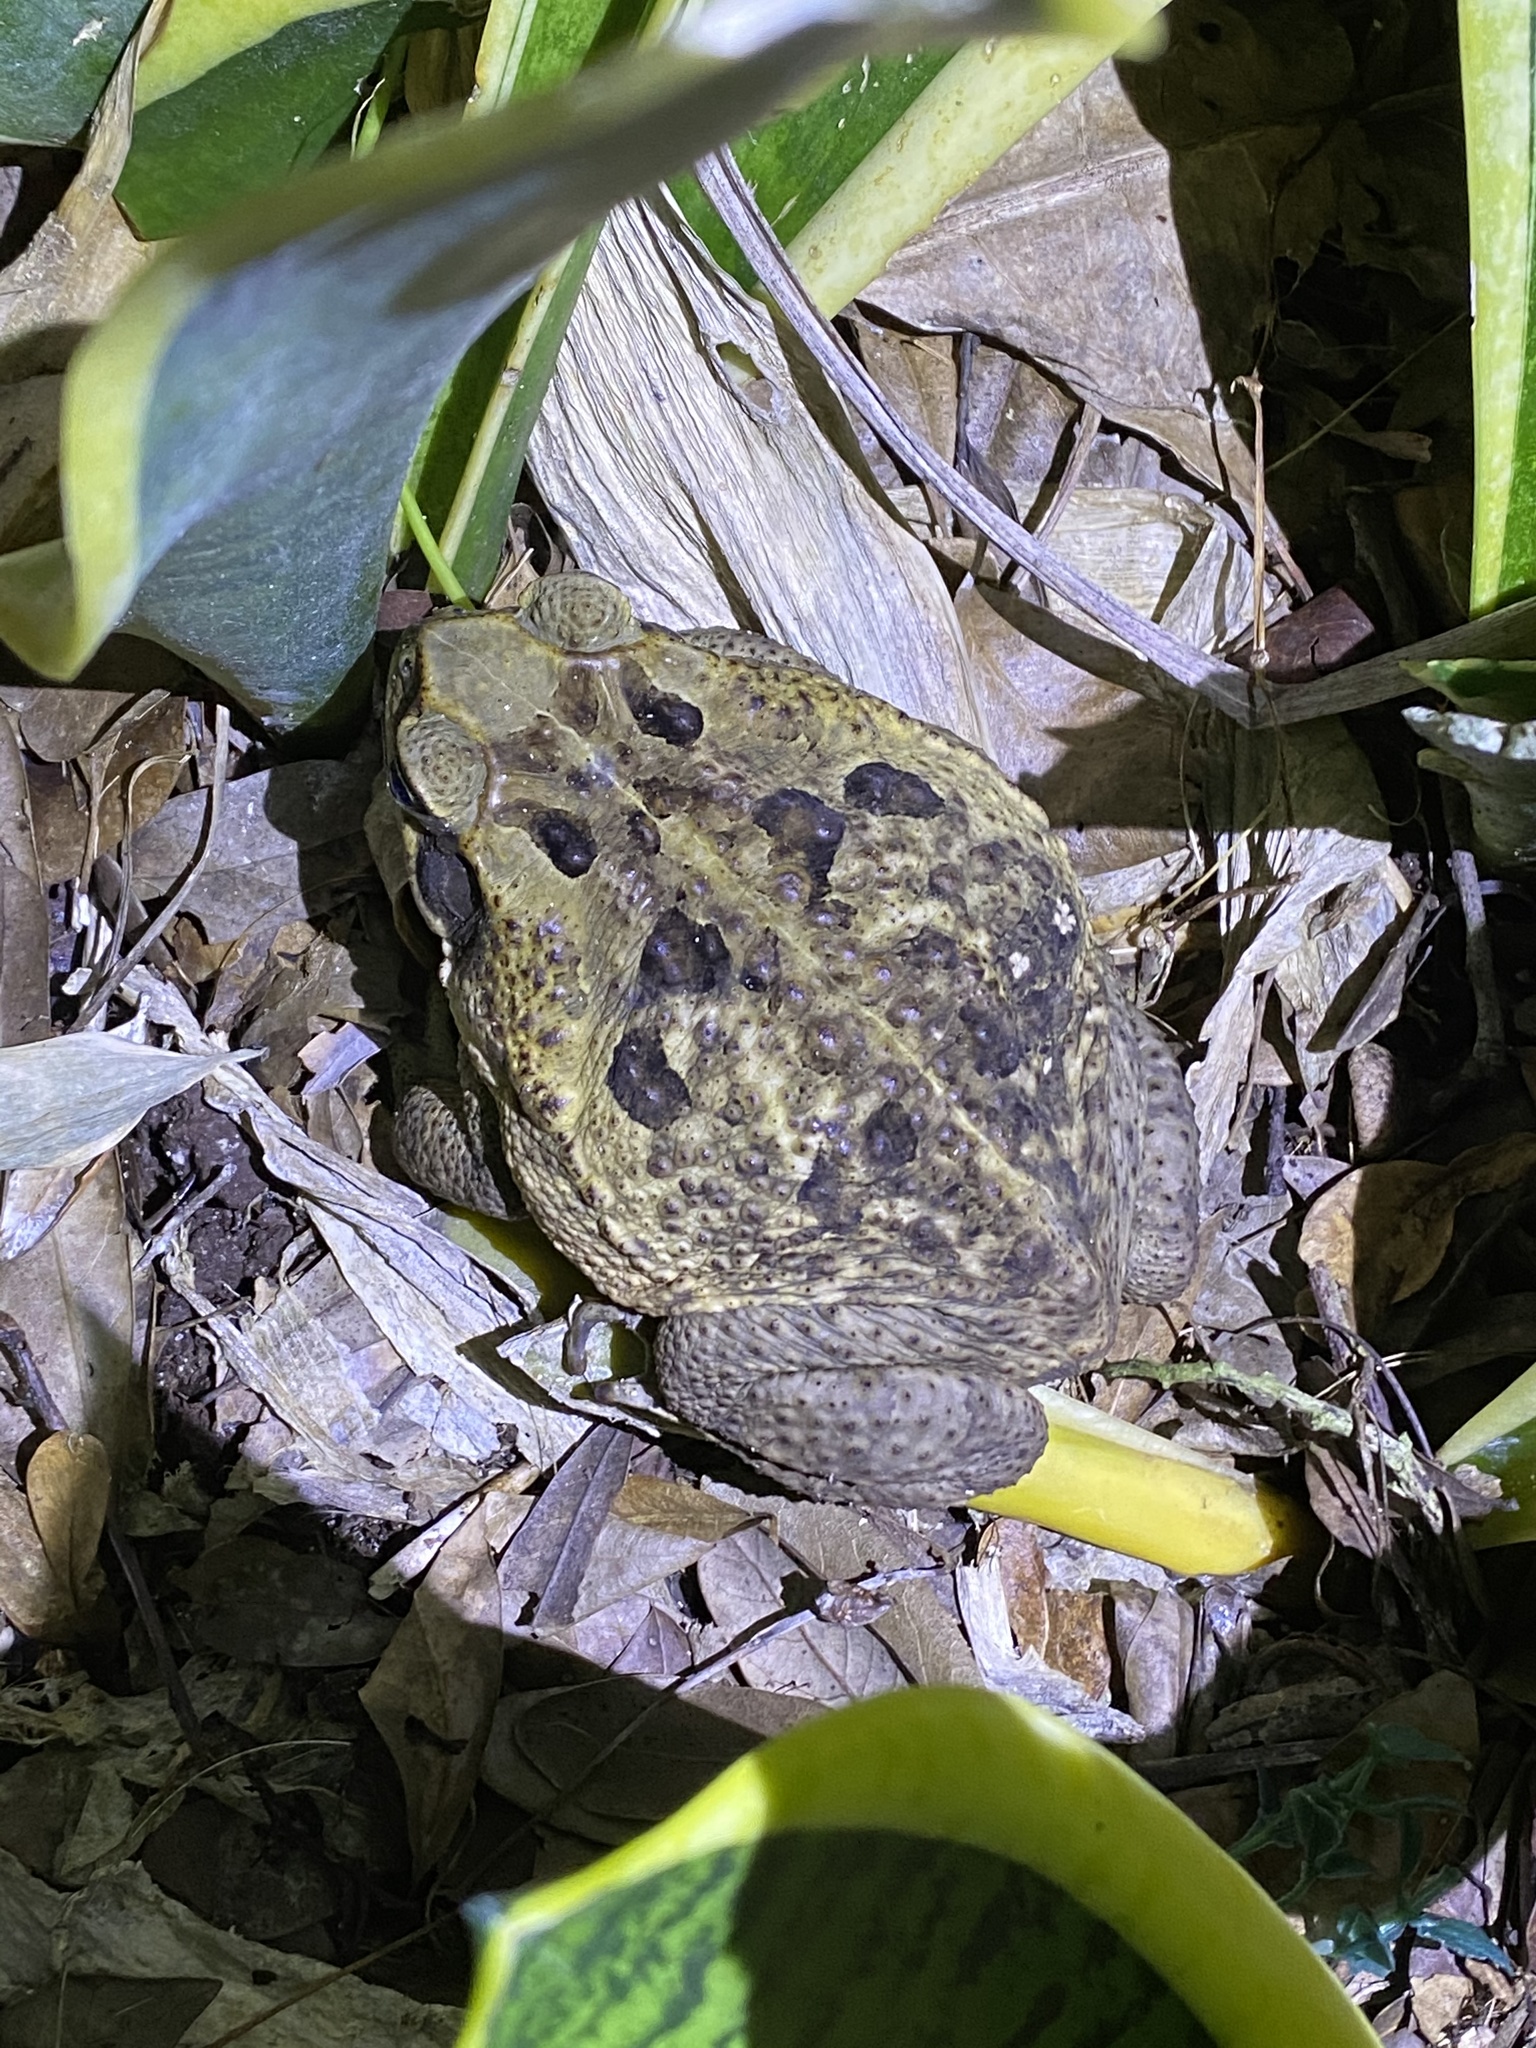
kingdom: Animalia
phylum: Chordata
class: Amphibia
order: Anura
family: Bufonidae
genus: Rhinella
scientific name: Rhinella marina
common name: Cane toad
